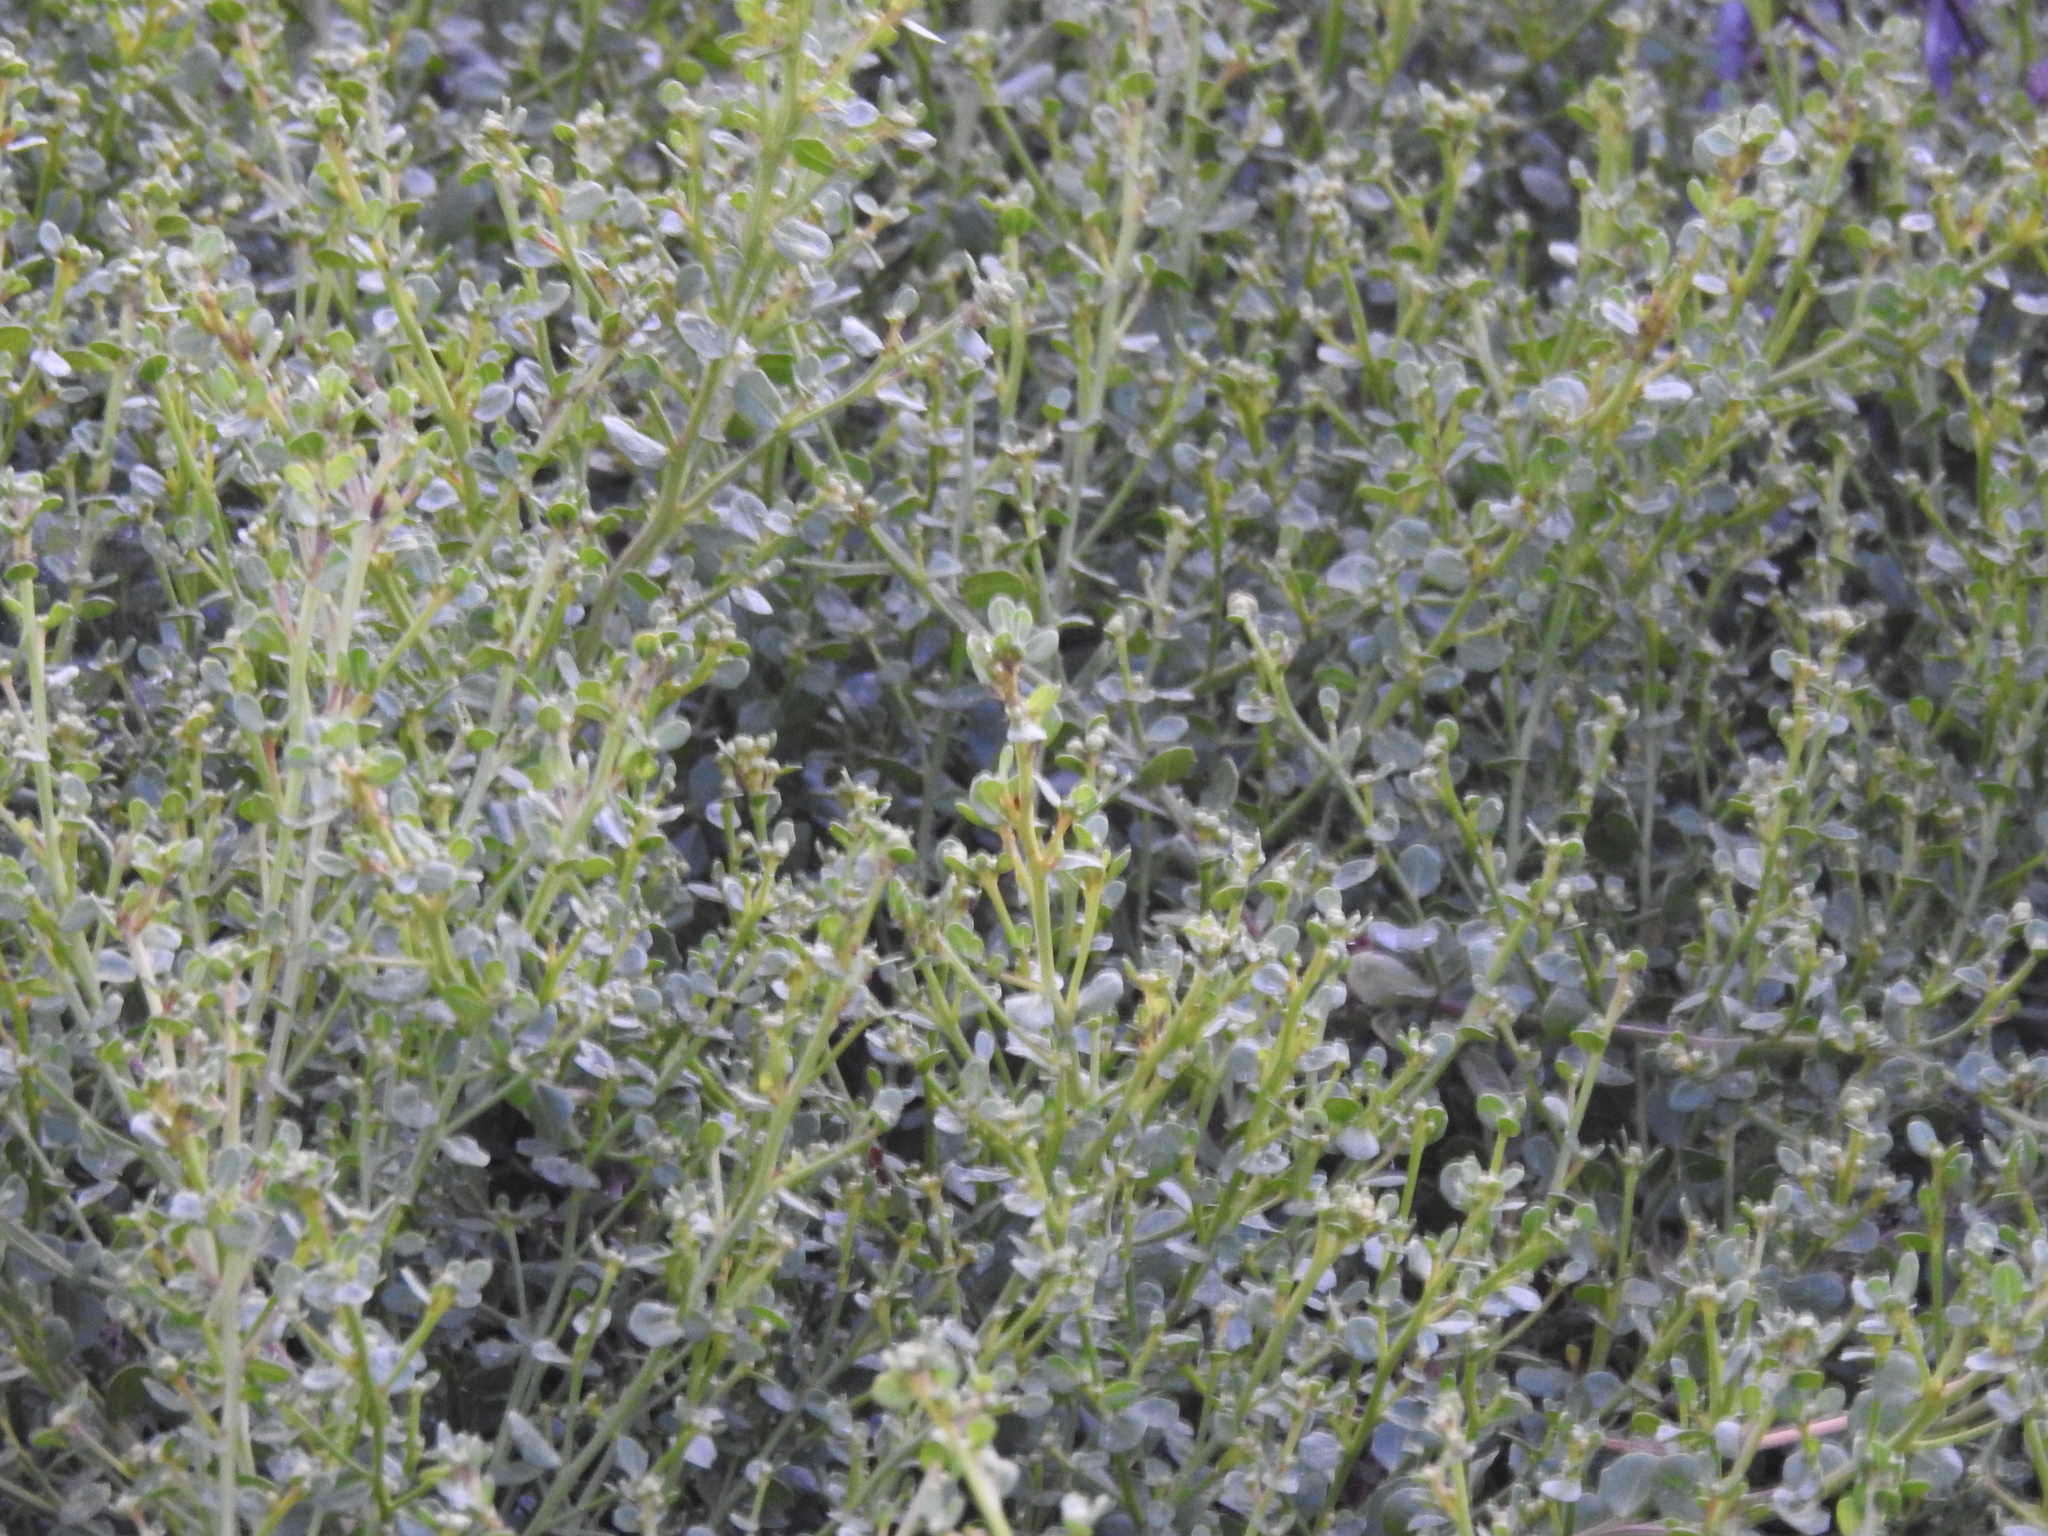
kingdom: Plantae
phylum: Tracheophyta
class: Magnoliopsida
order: Asterales
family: Asteraceae
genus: Baccharis
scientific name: Baccharis pilularis
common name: Coyotebrush
